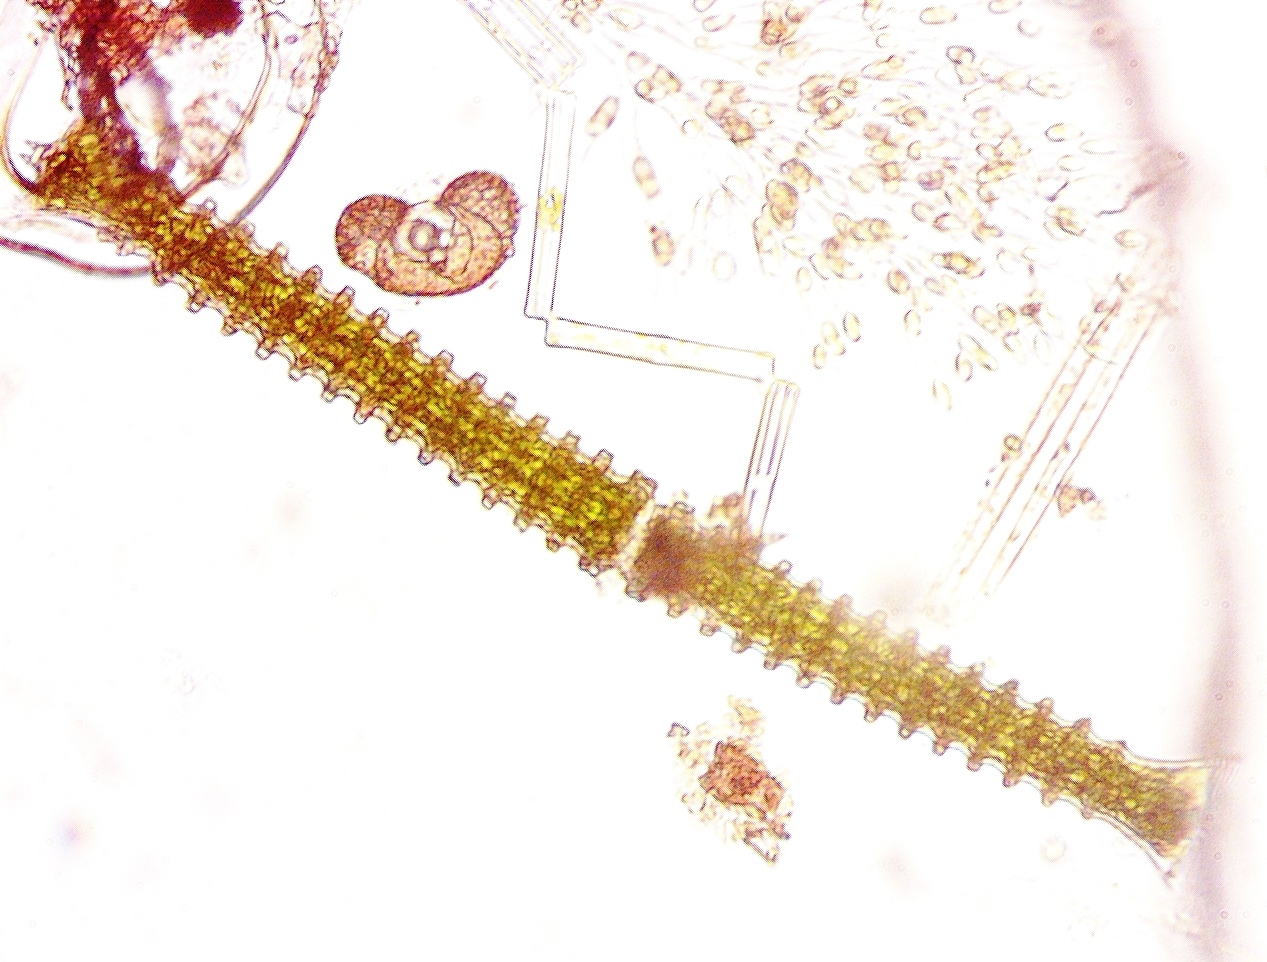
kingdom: Plantae
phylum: Charophyta
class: Conjugatophyceae
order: Desmidiales
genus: Triploceras
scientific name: Triploceras verticillatum
